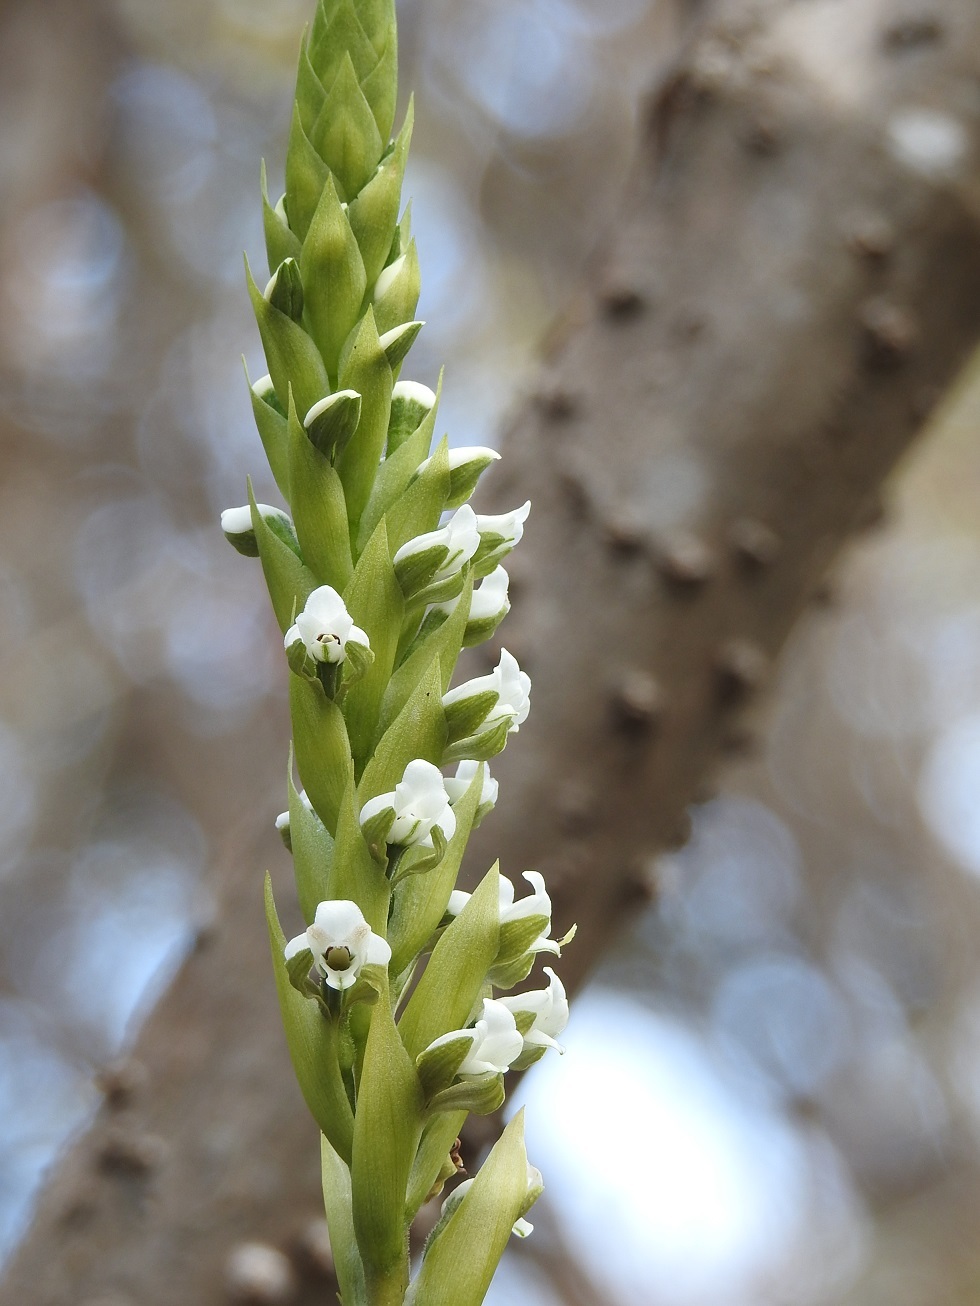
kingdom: Plantae
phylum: Tracheophyta
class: Liliopsida
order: Asparagales
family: Orchidaceae
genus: Aulosepalum
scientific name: Aulosepalum hemichrea
